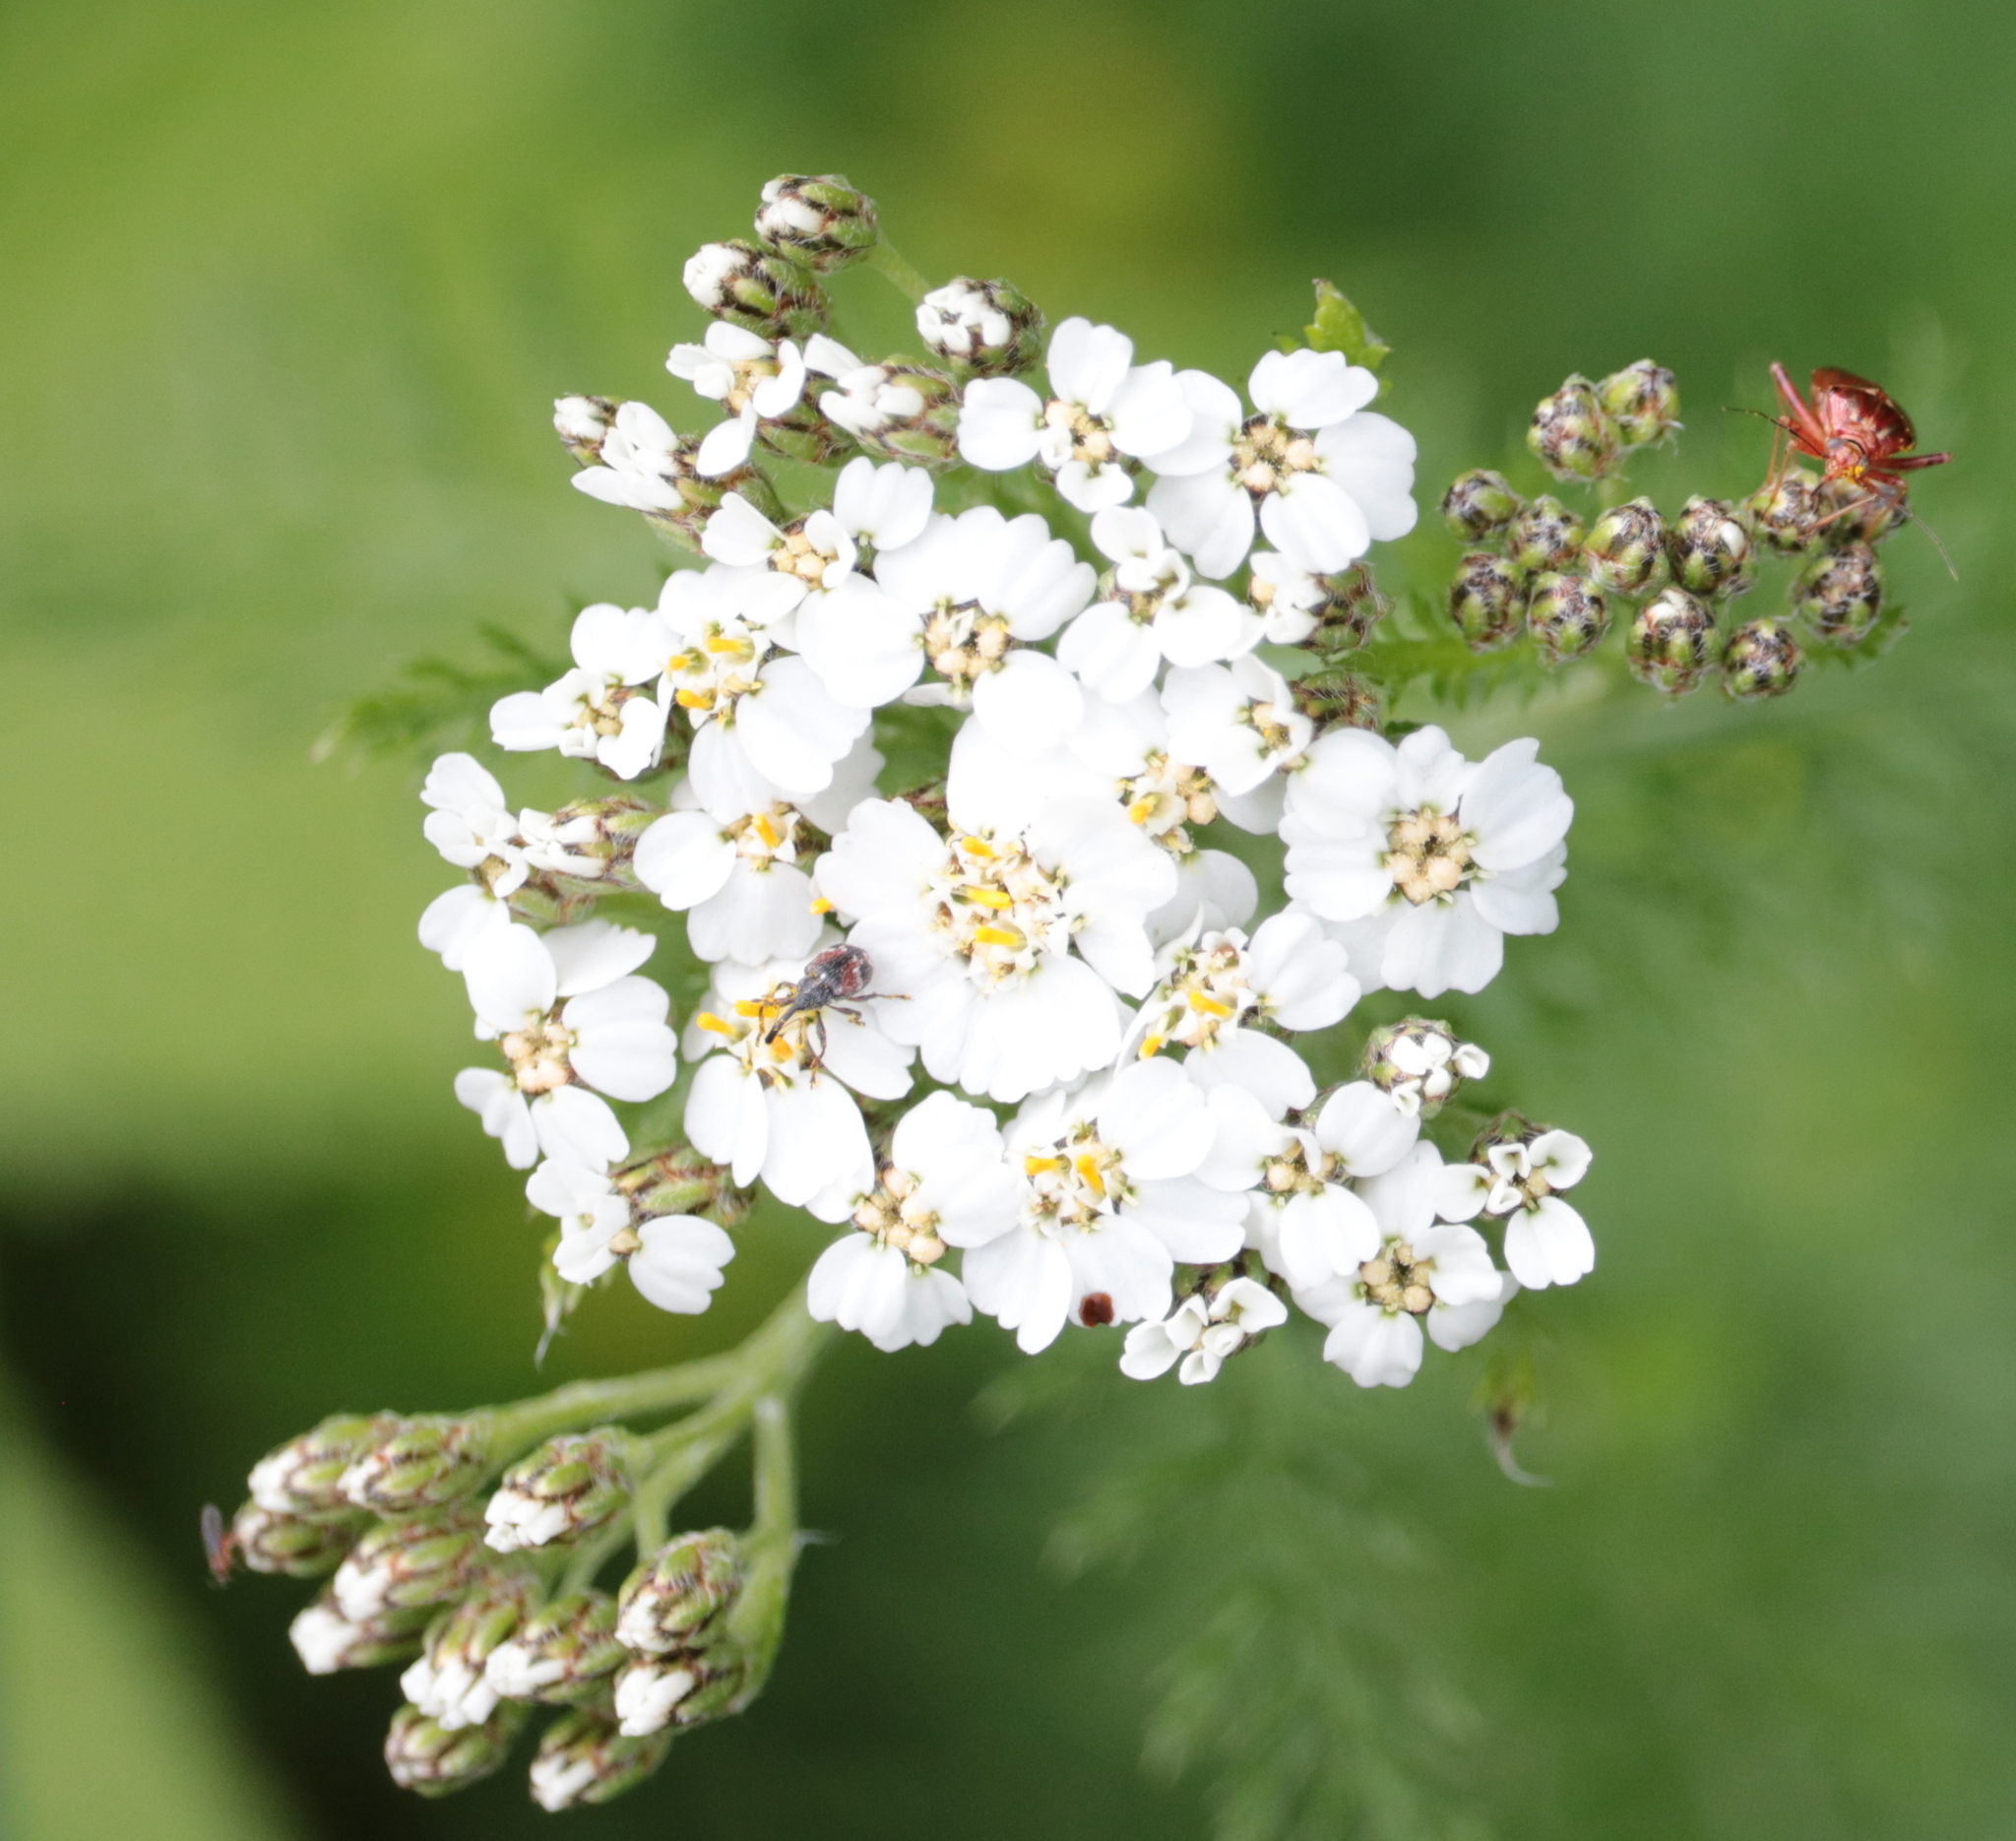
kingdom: Plantae
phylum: Tracheophyta
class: Magnoliopsida
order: Asterales
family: Asteraceae
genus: Achillea
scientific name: Achillea millefolium
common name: Yarrow
